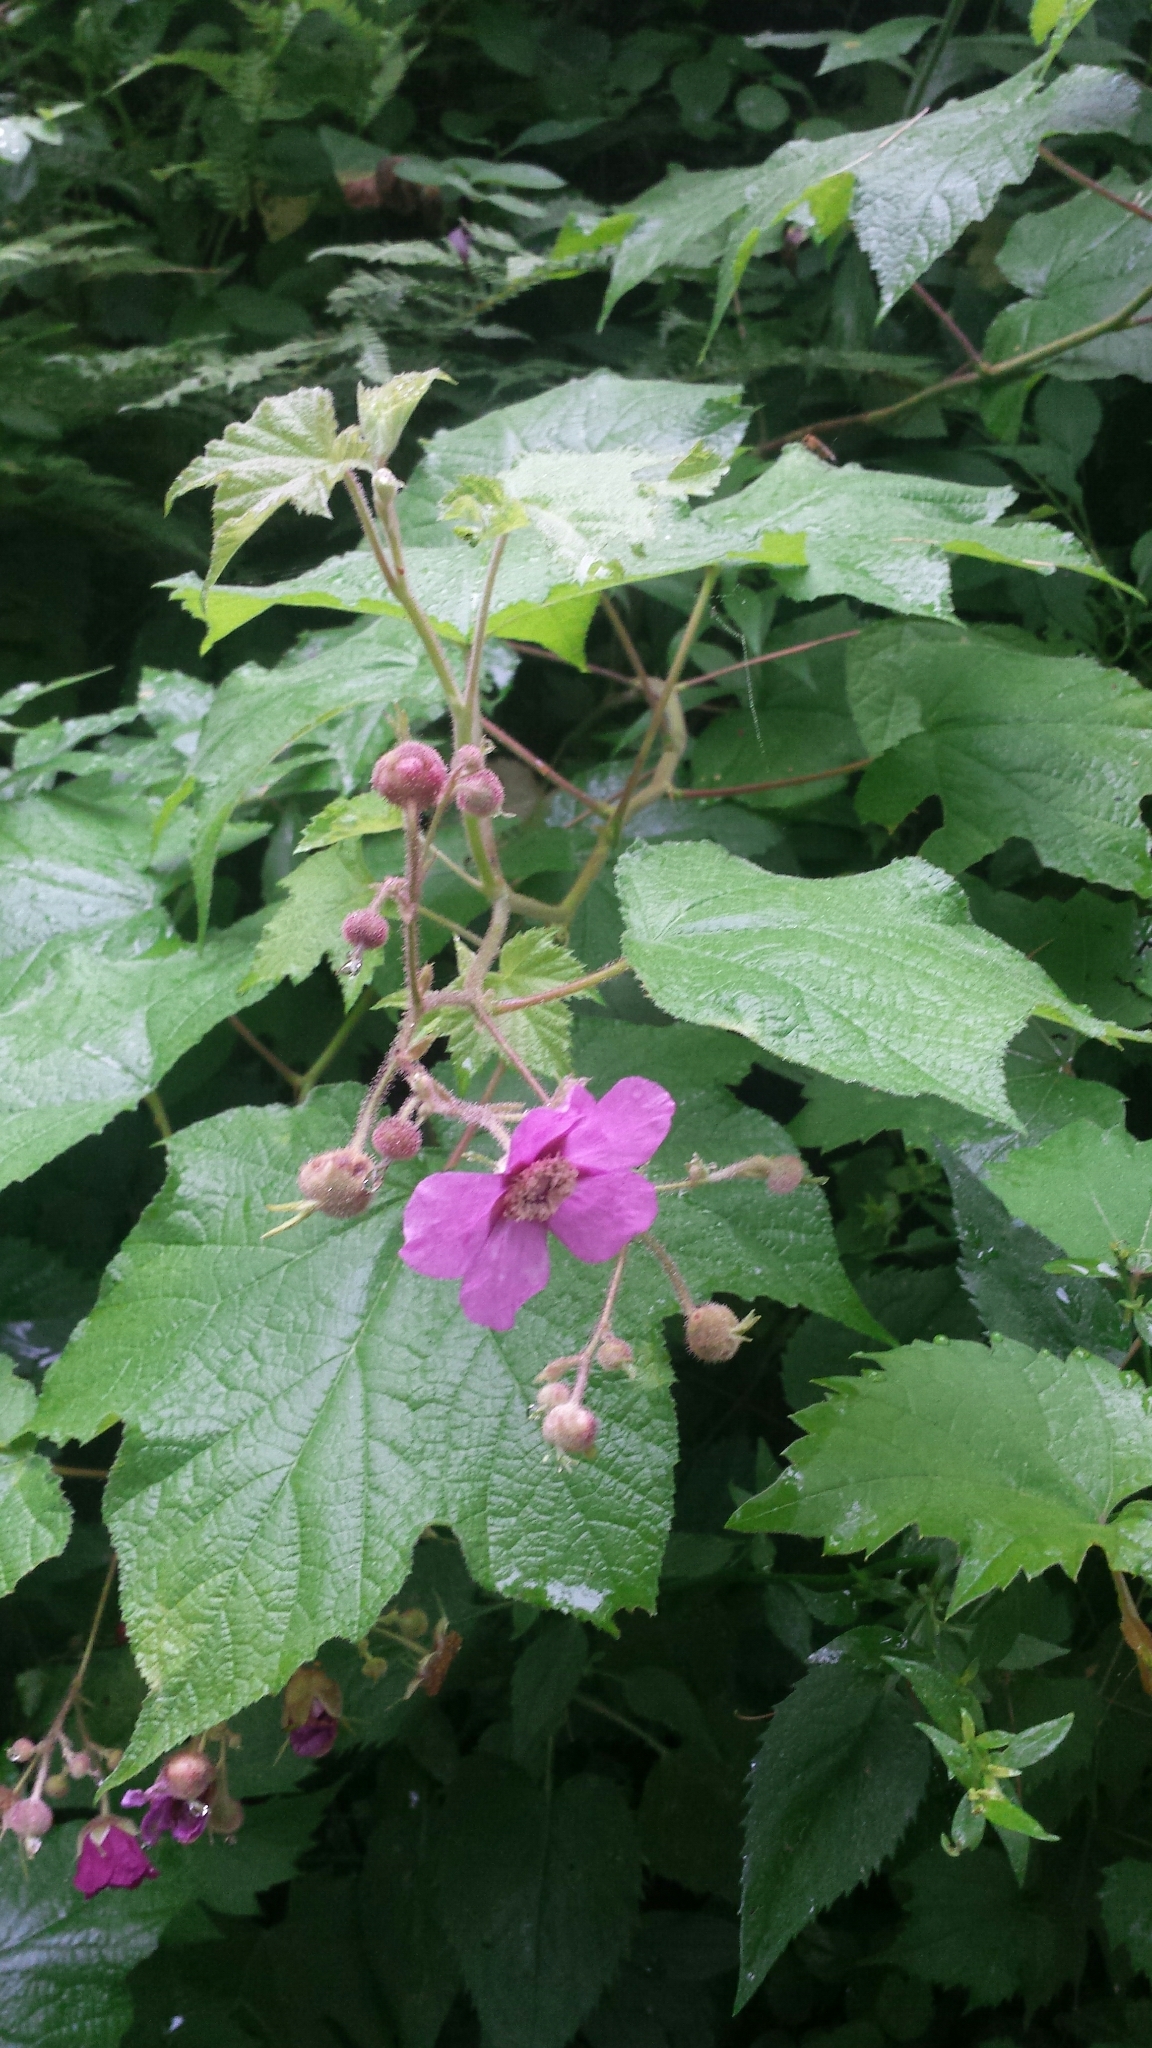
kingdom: Plantae
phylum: Tracheophyta
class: Magnoliopsida
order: Rosales
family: Rosaceae
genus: Rubus
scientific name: Rubus odoratus
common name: Purple-flowered raspberry
